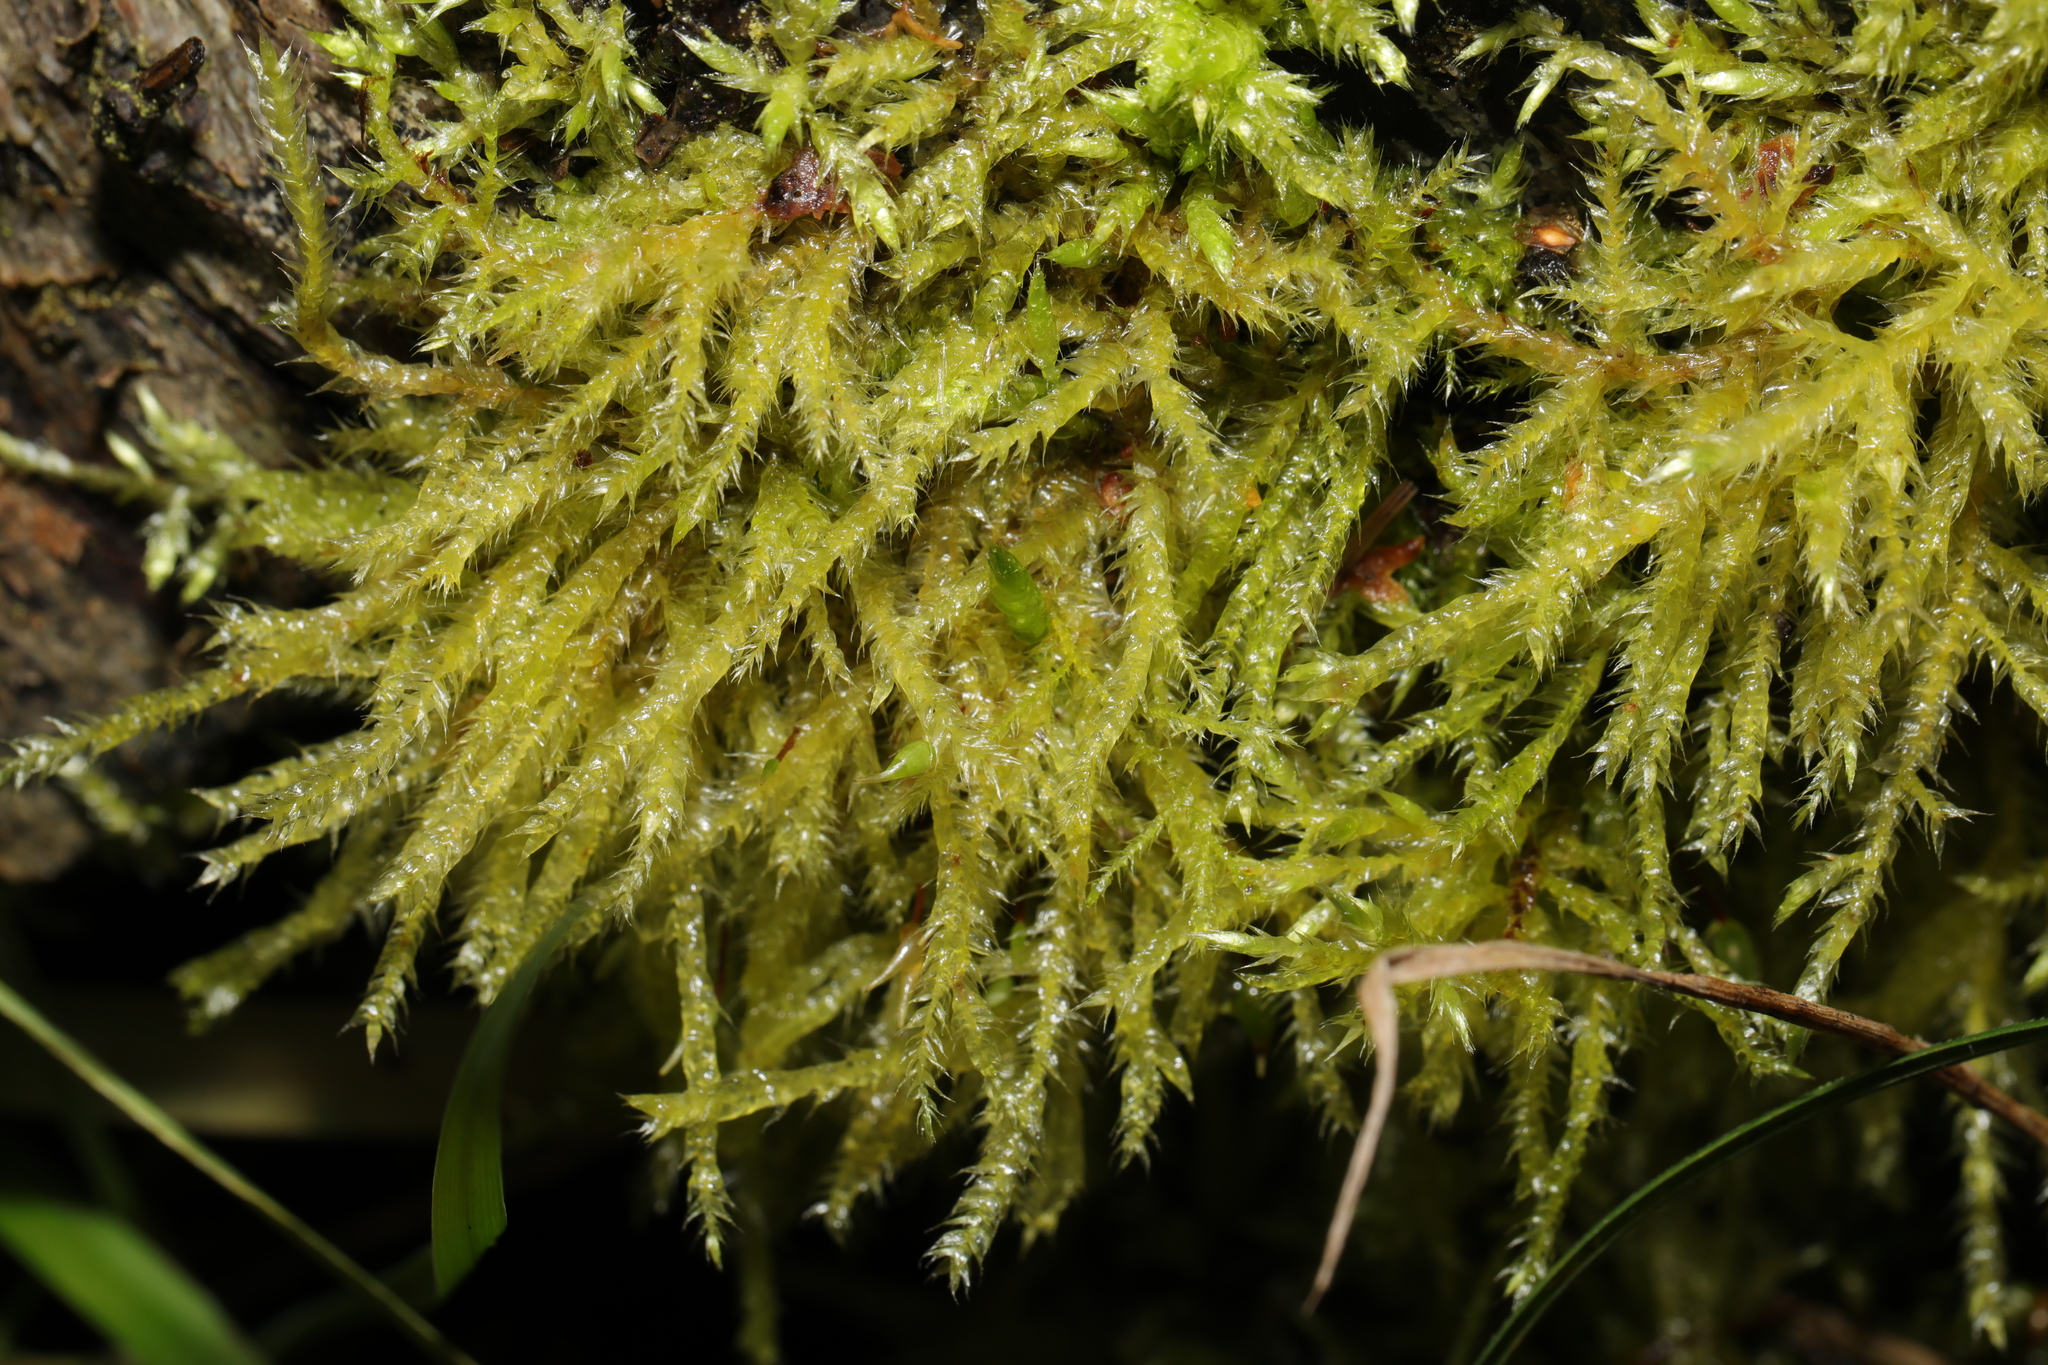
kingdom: Plantae
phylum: Bryophyta
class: Bryopsida
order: Hypnales
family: Brachytheciaceae
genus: Kindbergia
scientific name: Kindbergia praelonga
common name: Slender beaked moss
